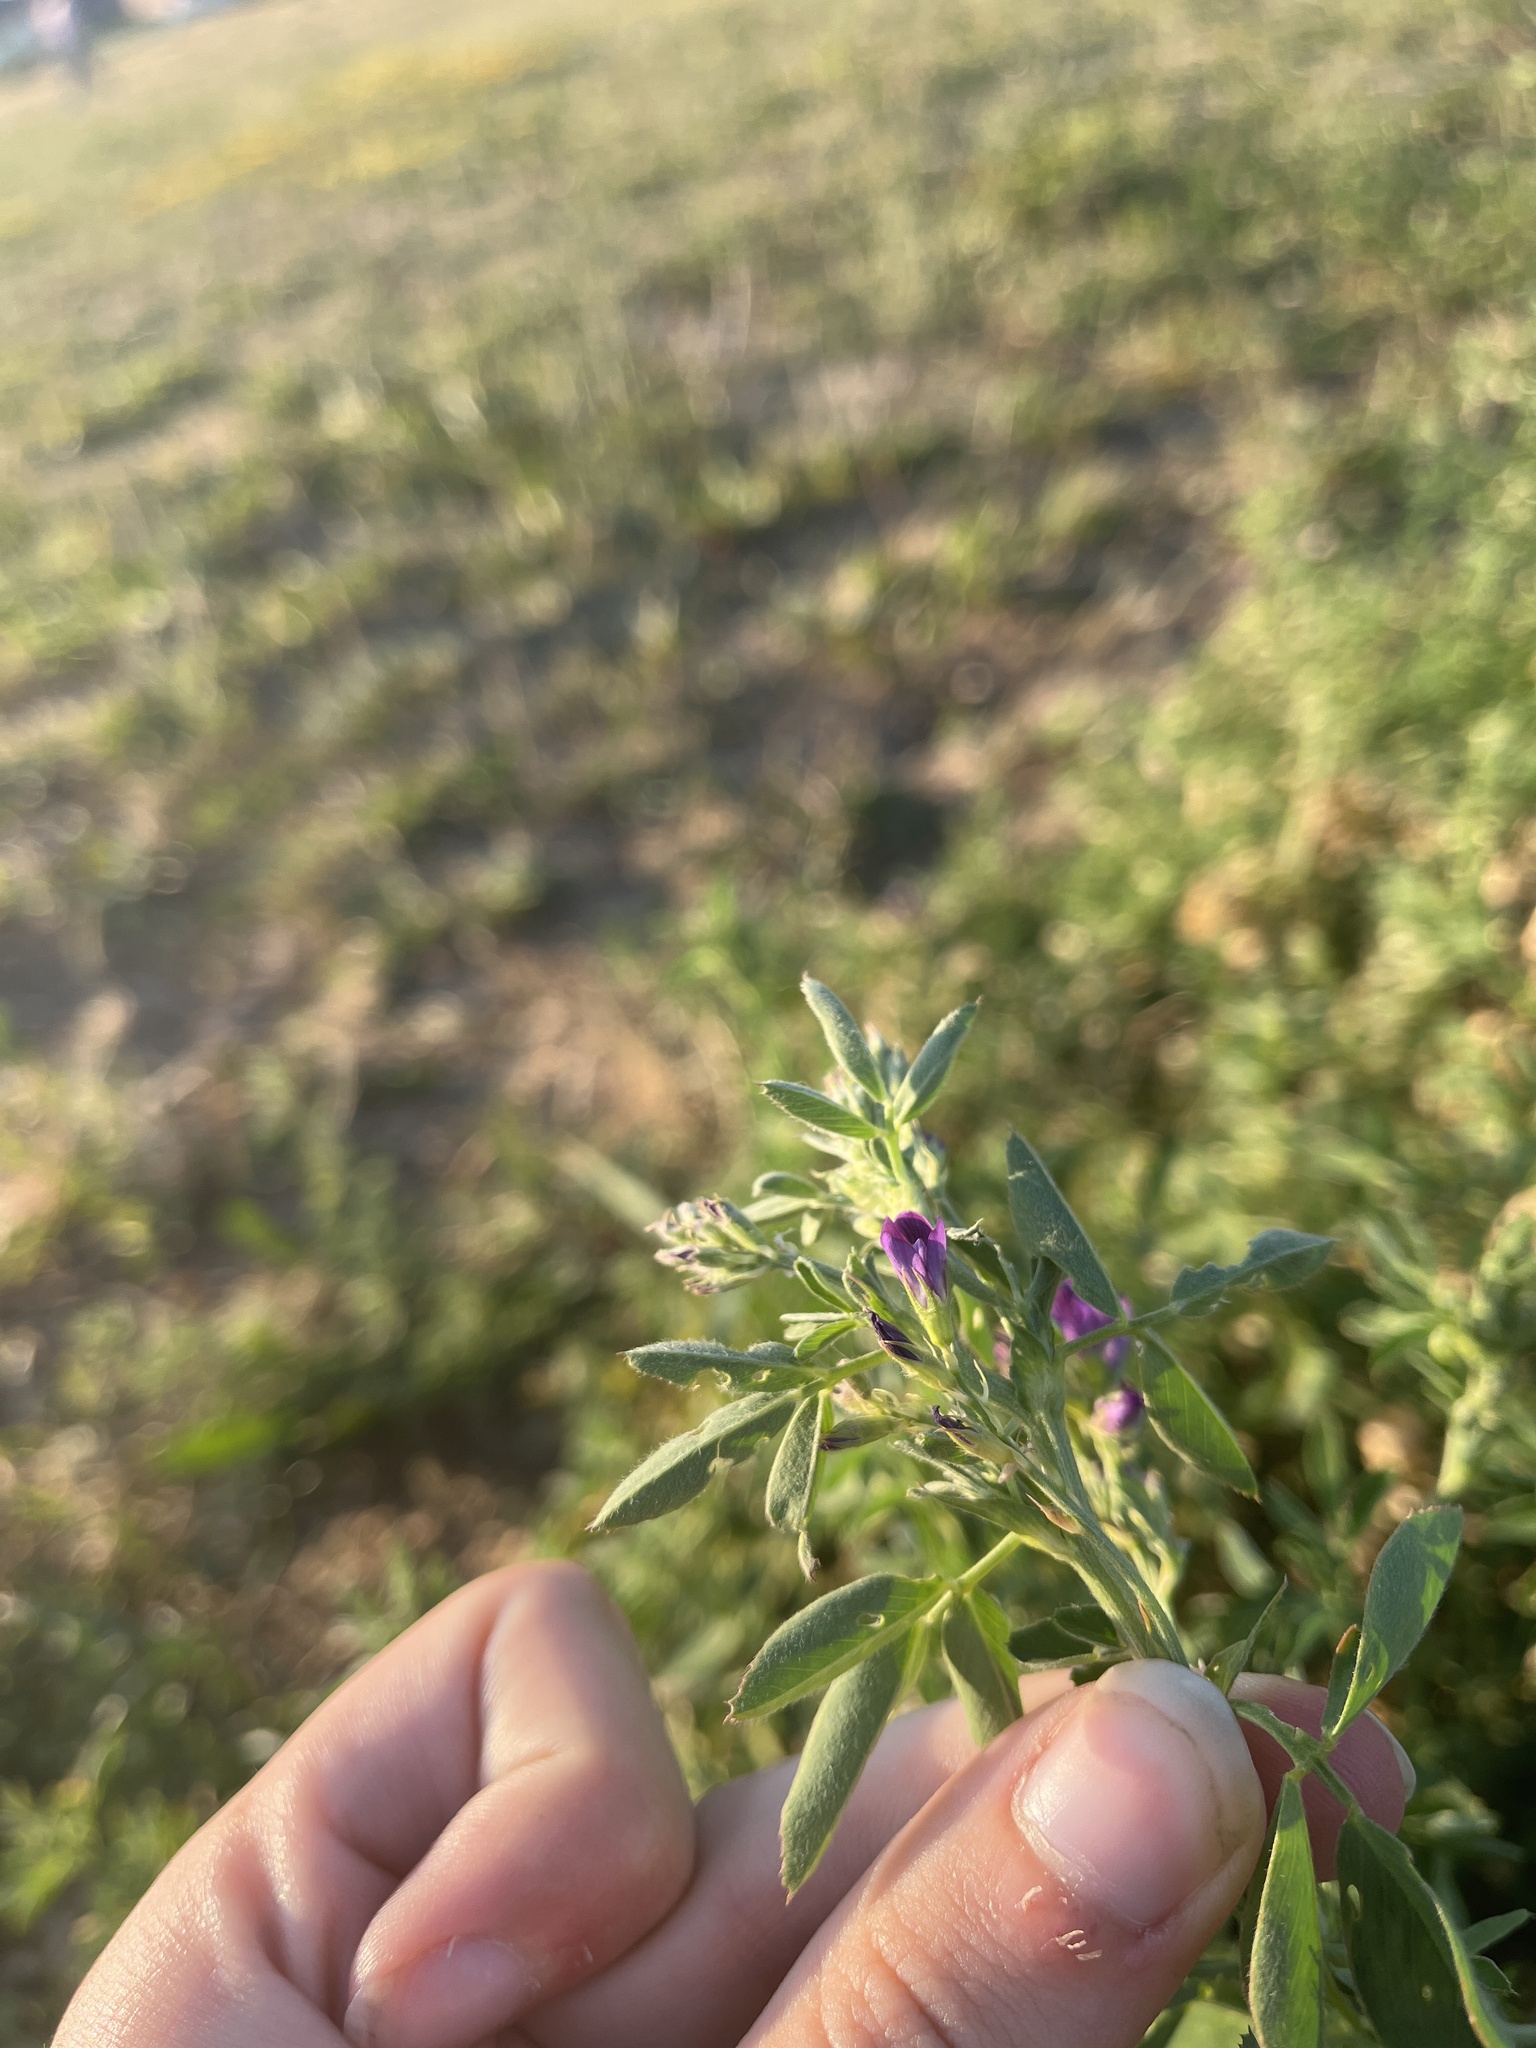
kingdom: Plantae
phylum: Tracheophyta
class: Magnoliopsida
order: Fabales
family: Fabaceae
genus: Medicago
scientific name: Medicago sativa
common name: Alfalfa
